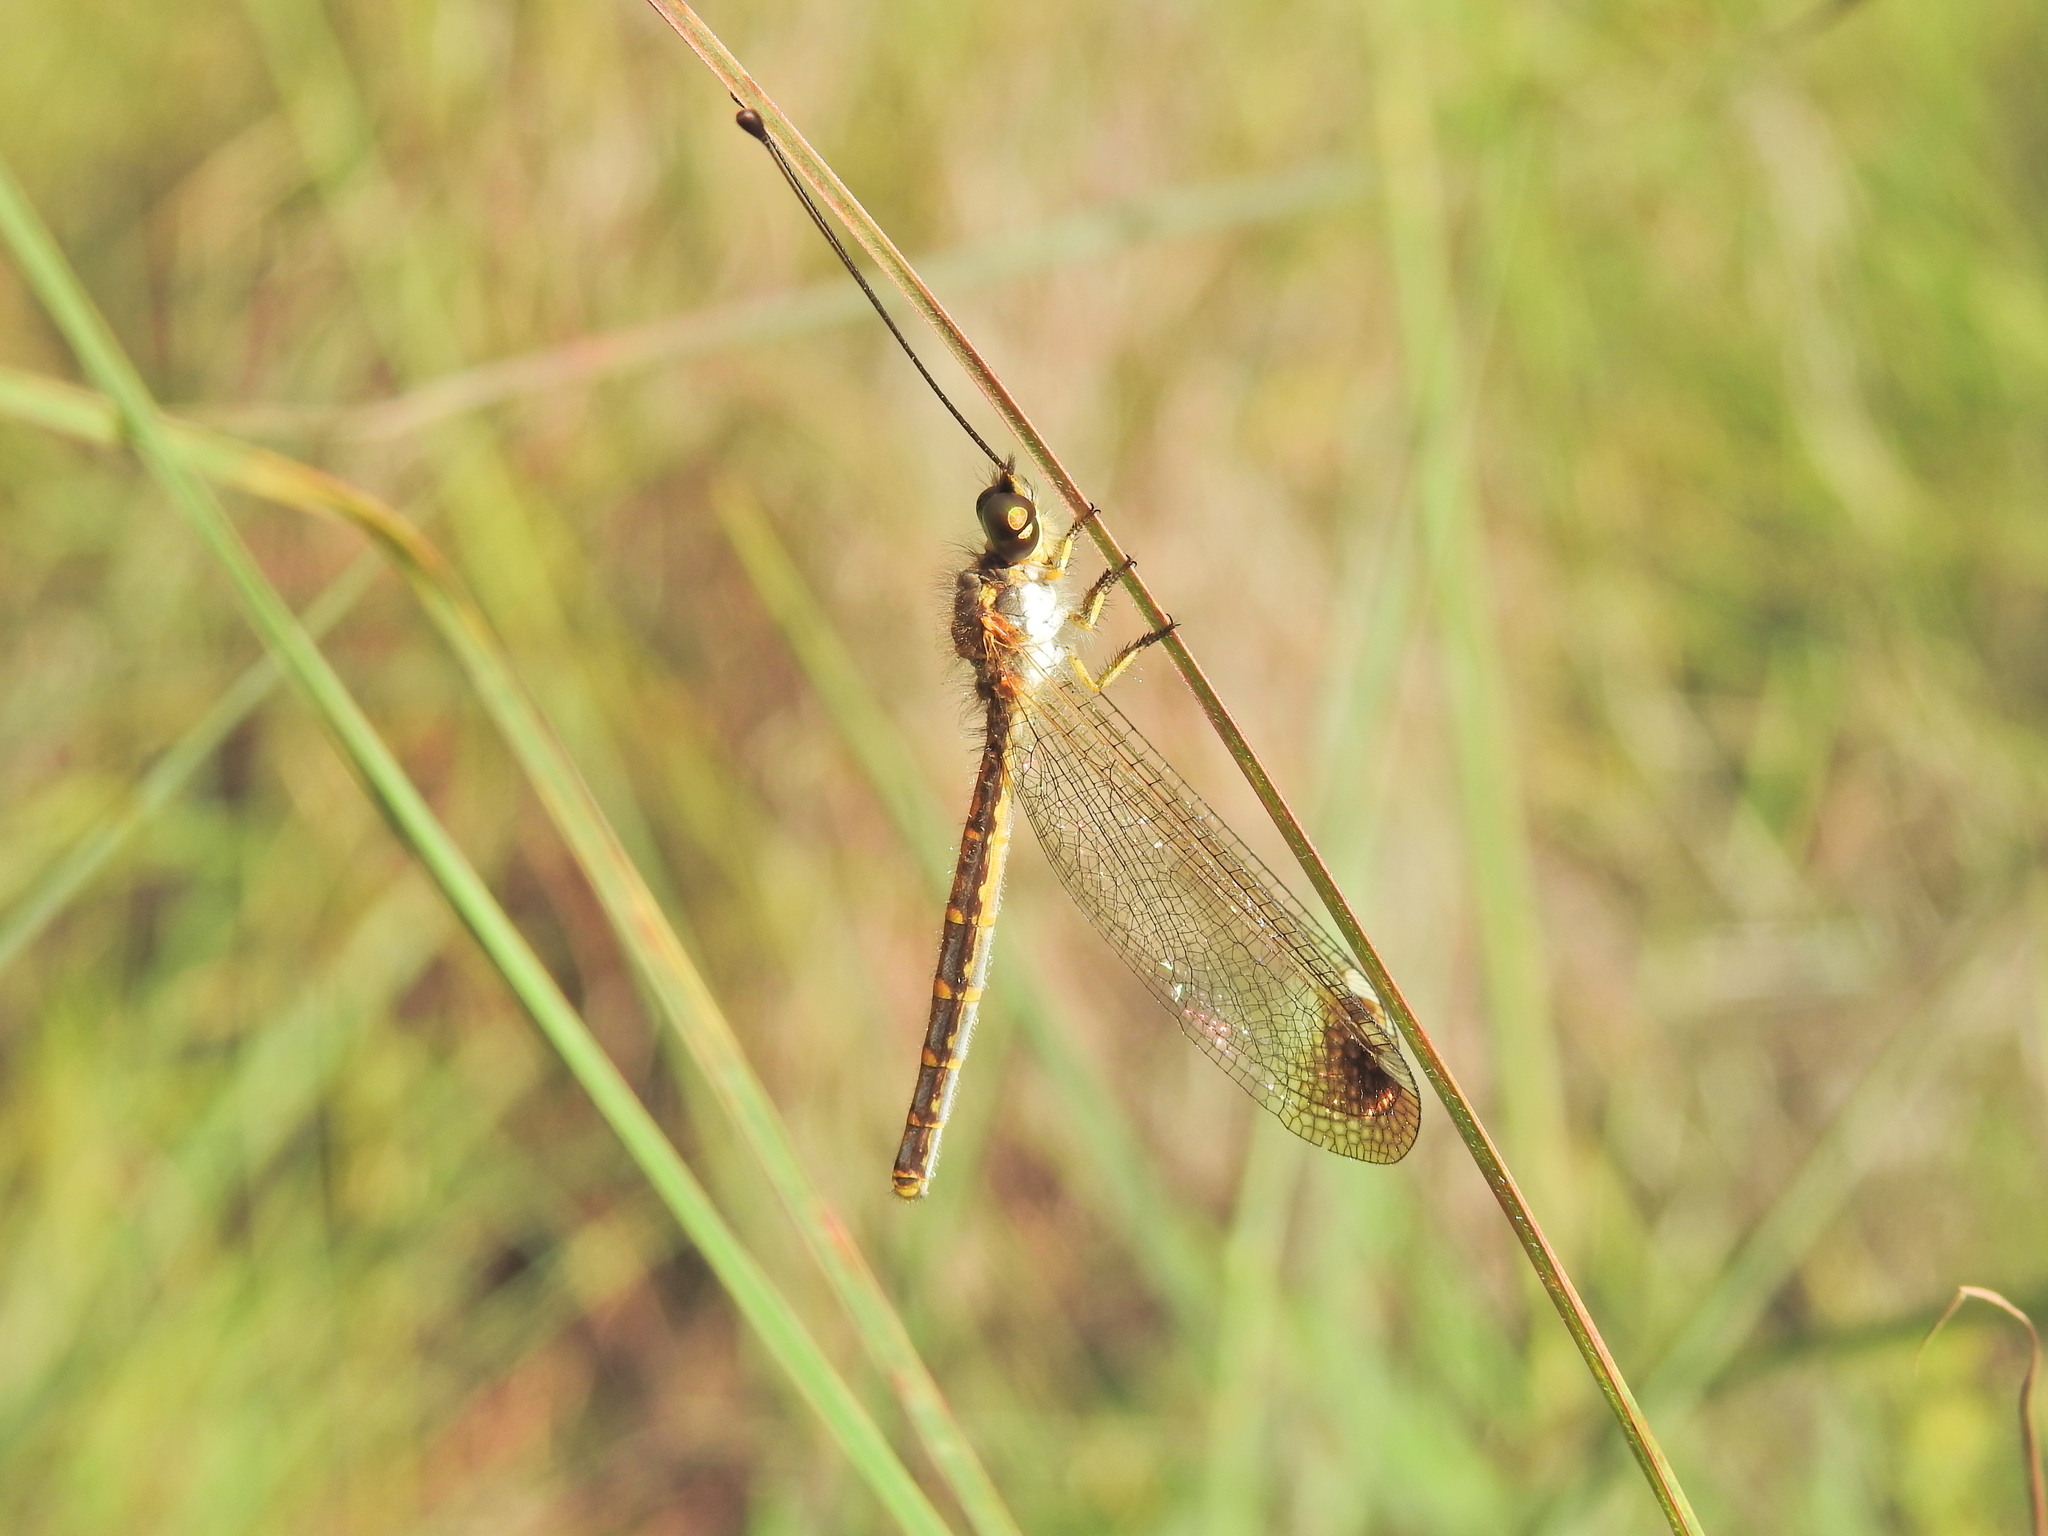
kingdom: Animalia
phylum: Arthropoda
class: Insecta
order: Neuroptera
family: Ascalaphidae
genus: Suhpalacsa
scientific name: Suhpalacsa dietrichiae
